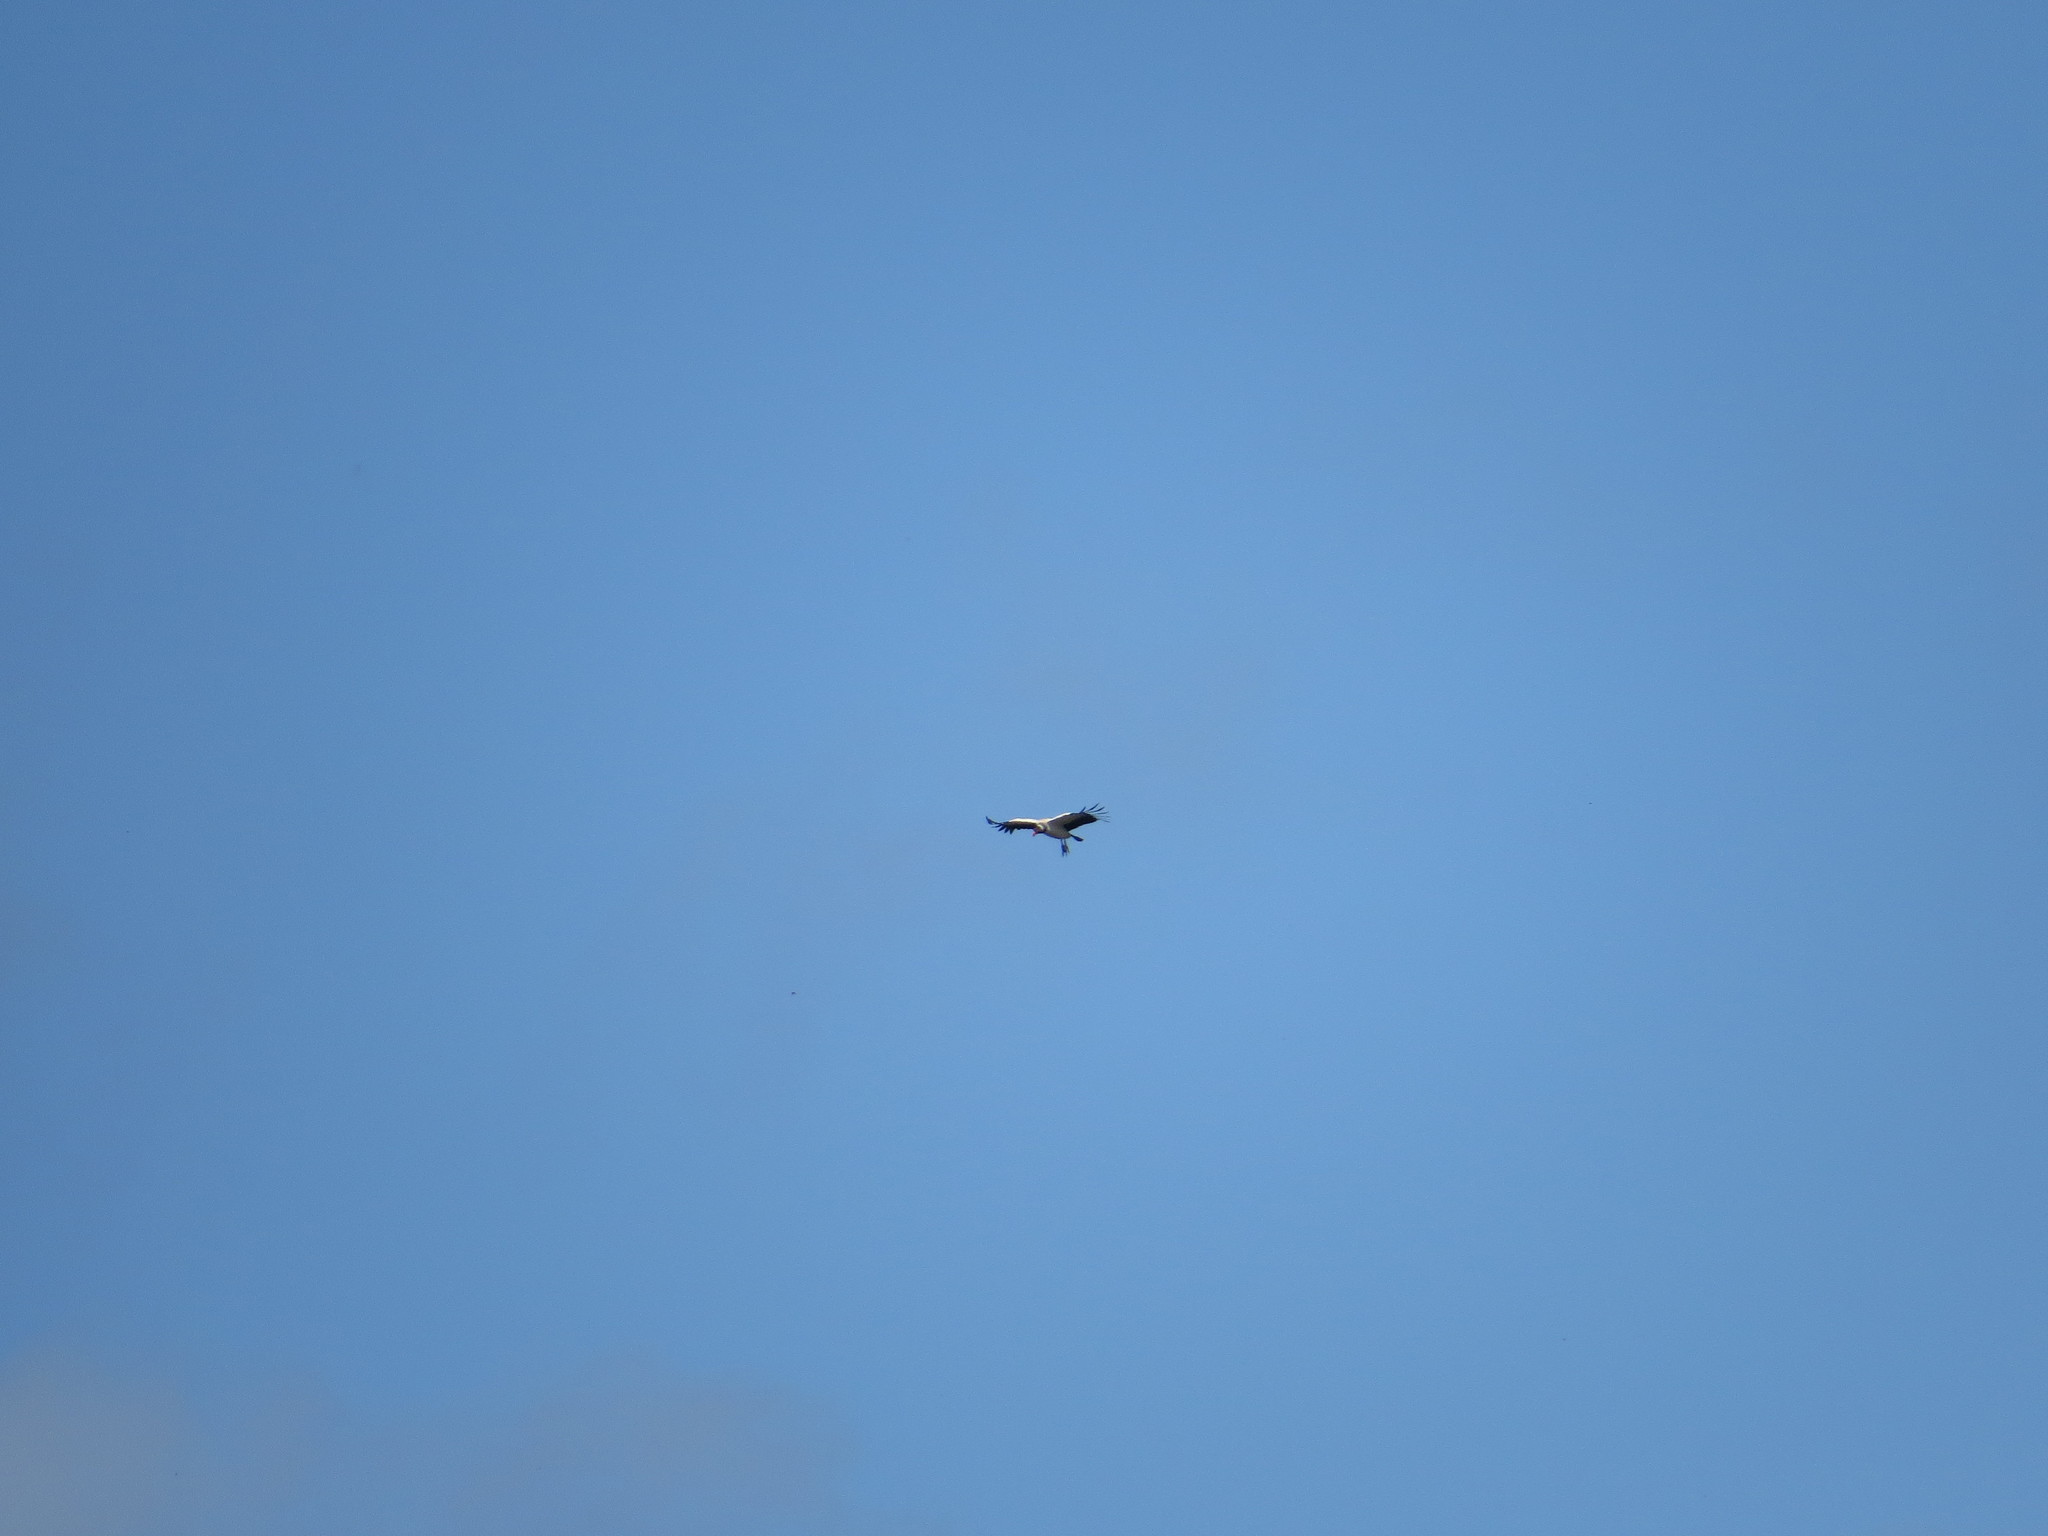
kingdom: Animalia
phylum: Chordata
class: Aves
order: Accipitriformes
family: Cathartidae
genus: Sarcoramphus
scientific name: Sarcoramphus papa
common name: King vulture
